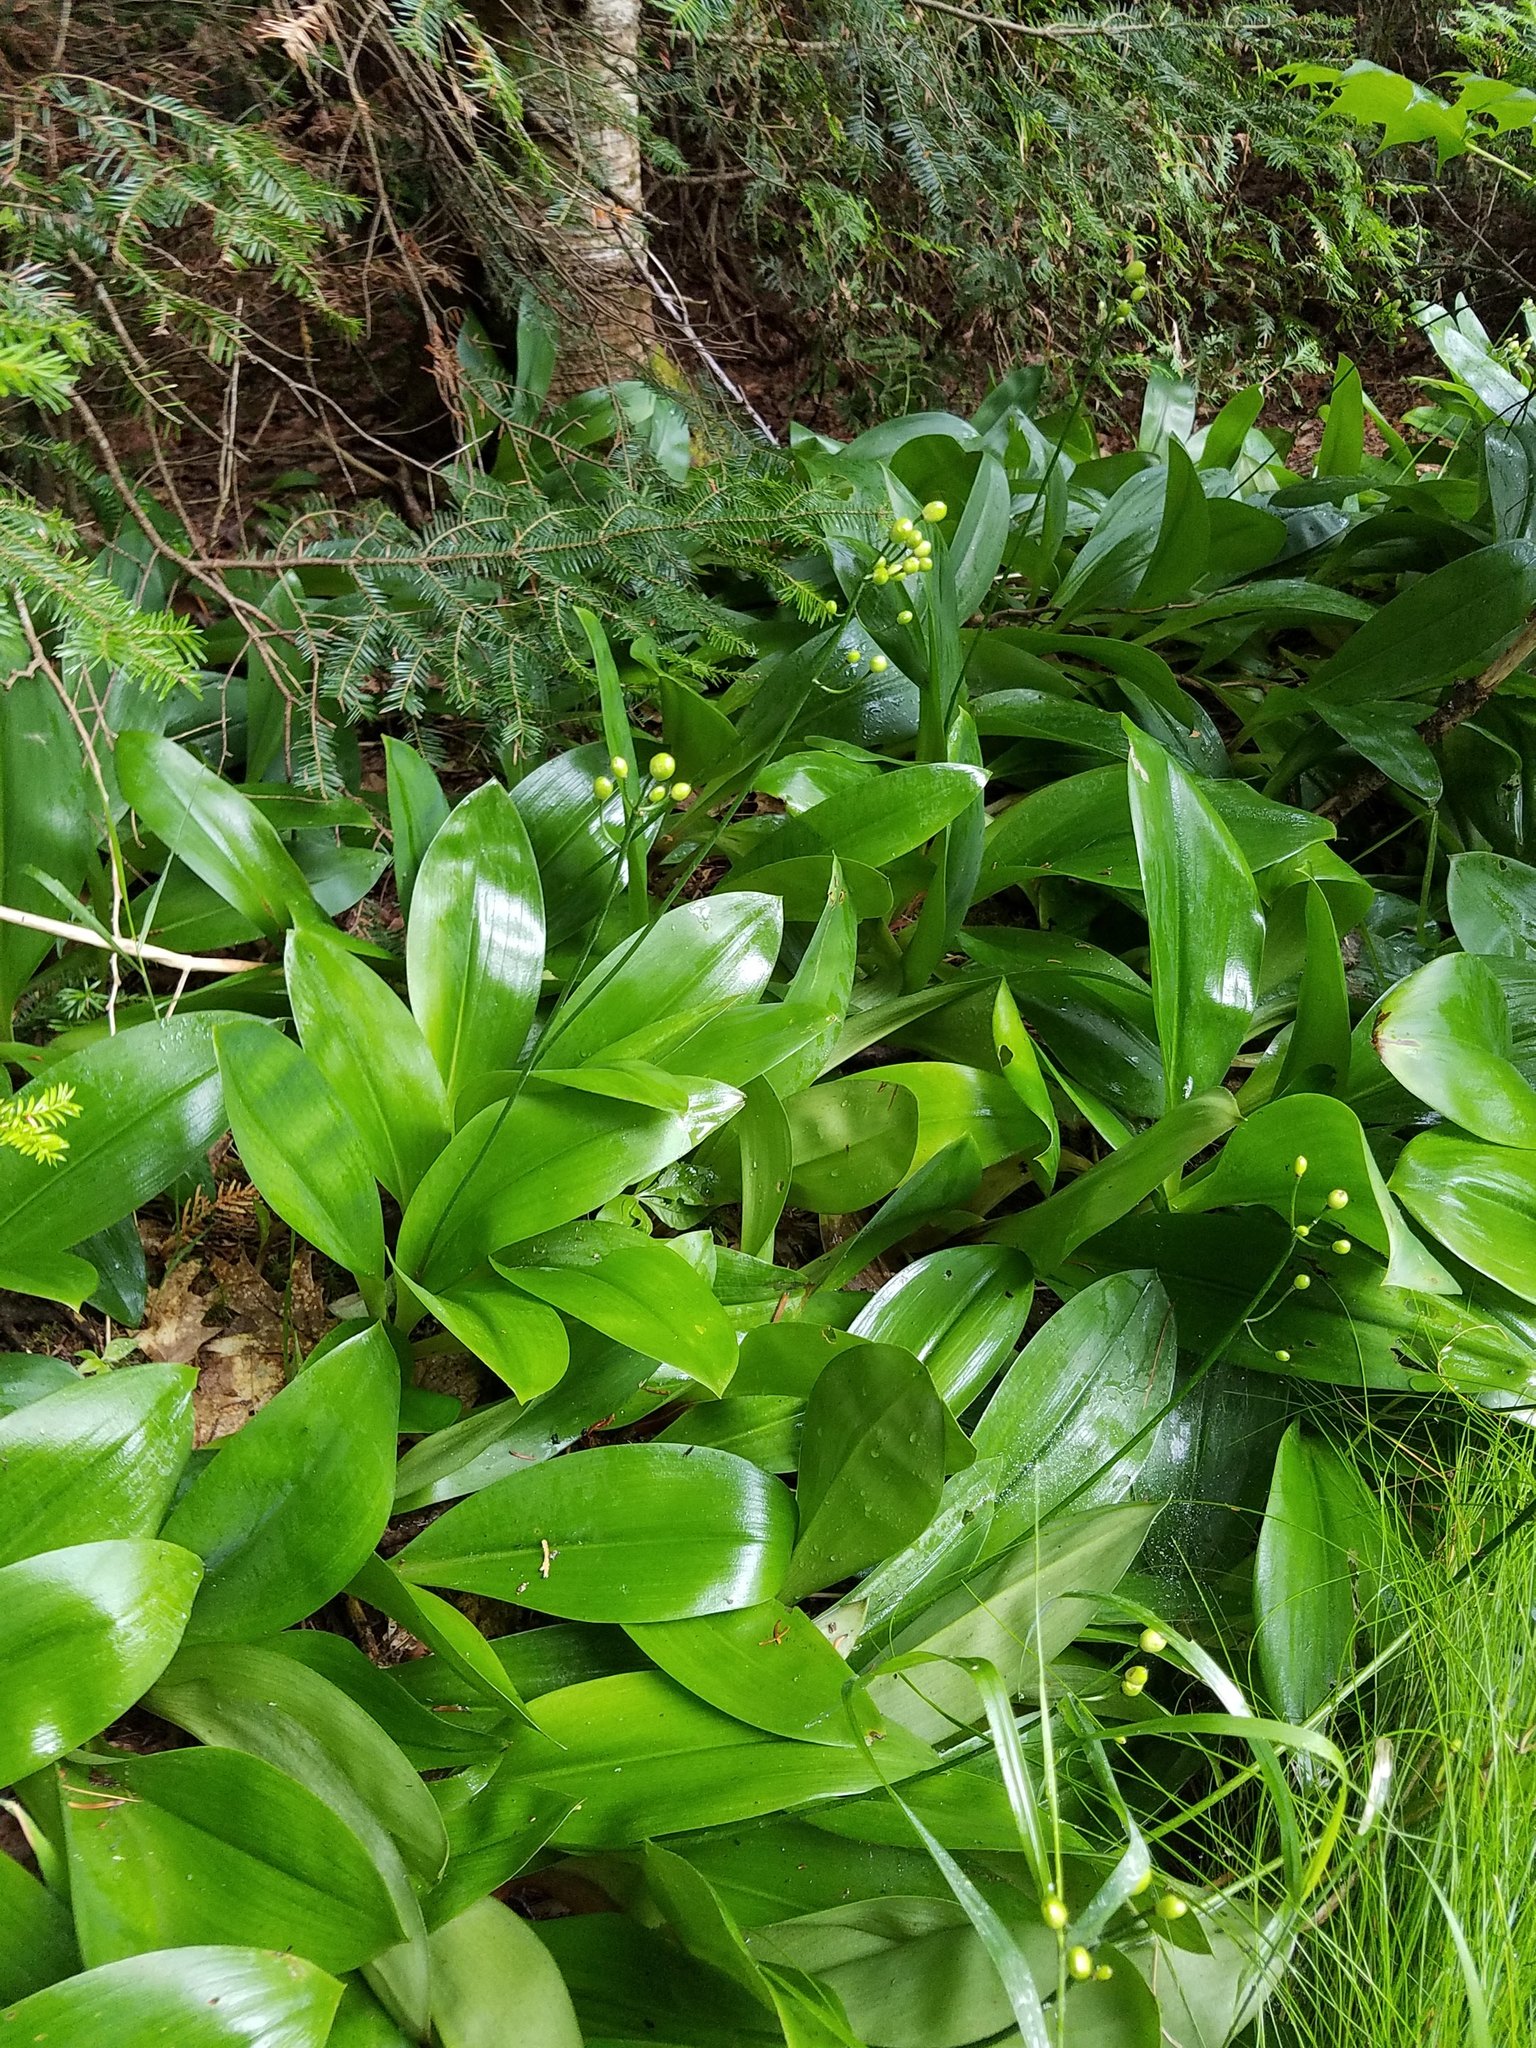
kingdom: Plantae
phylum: Tracheophyta
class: Liliopsida
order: Liliales
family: Liliaceae
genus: Clintonia
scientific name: Clintonia borealis
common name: Yellow clintonia
